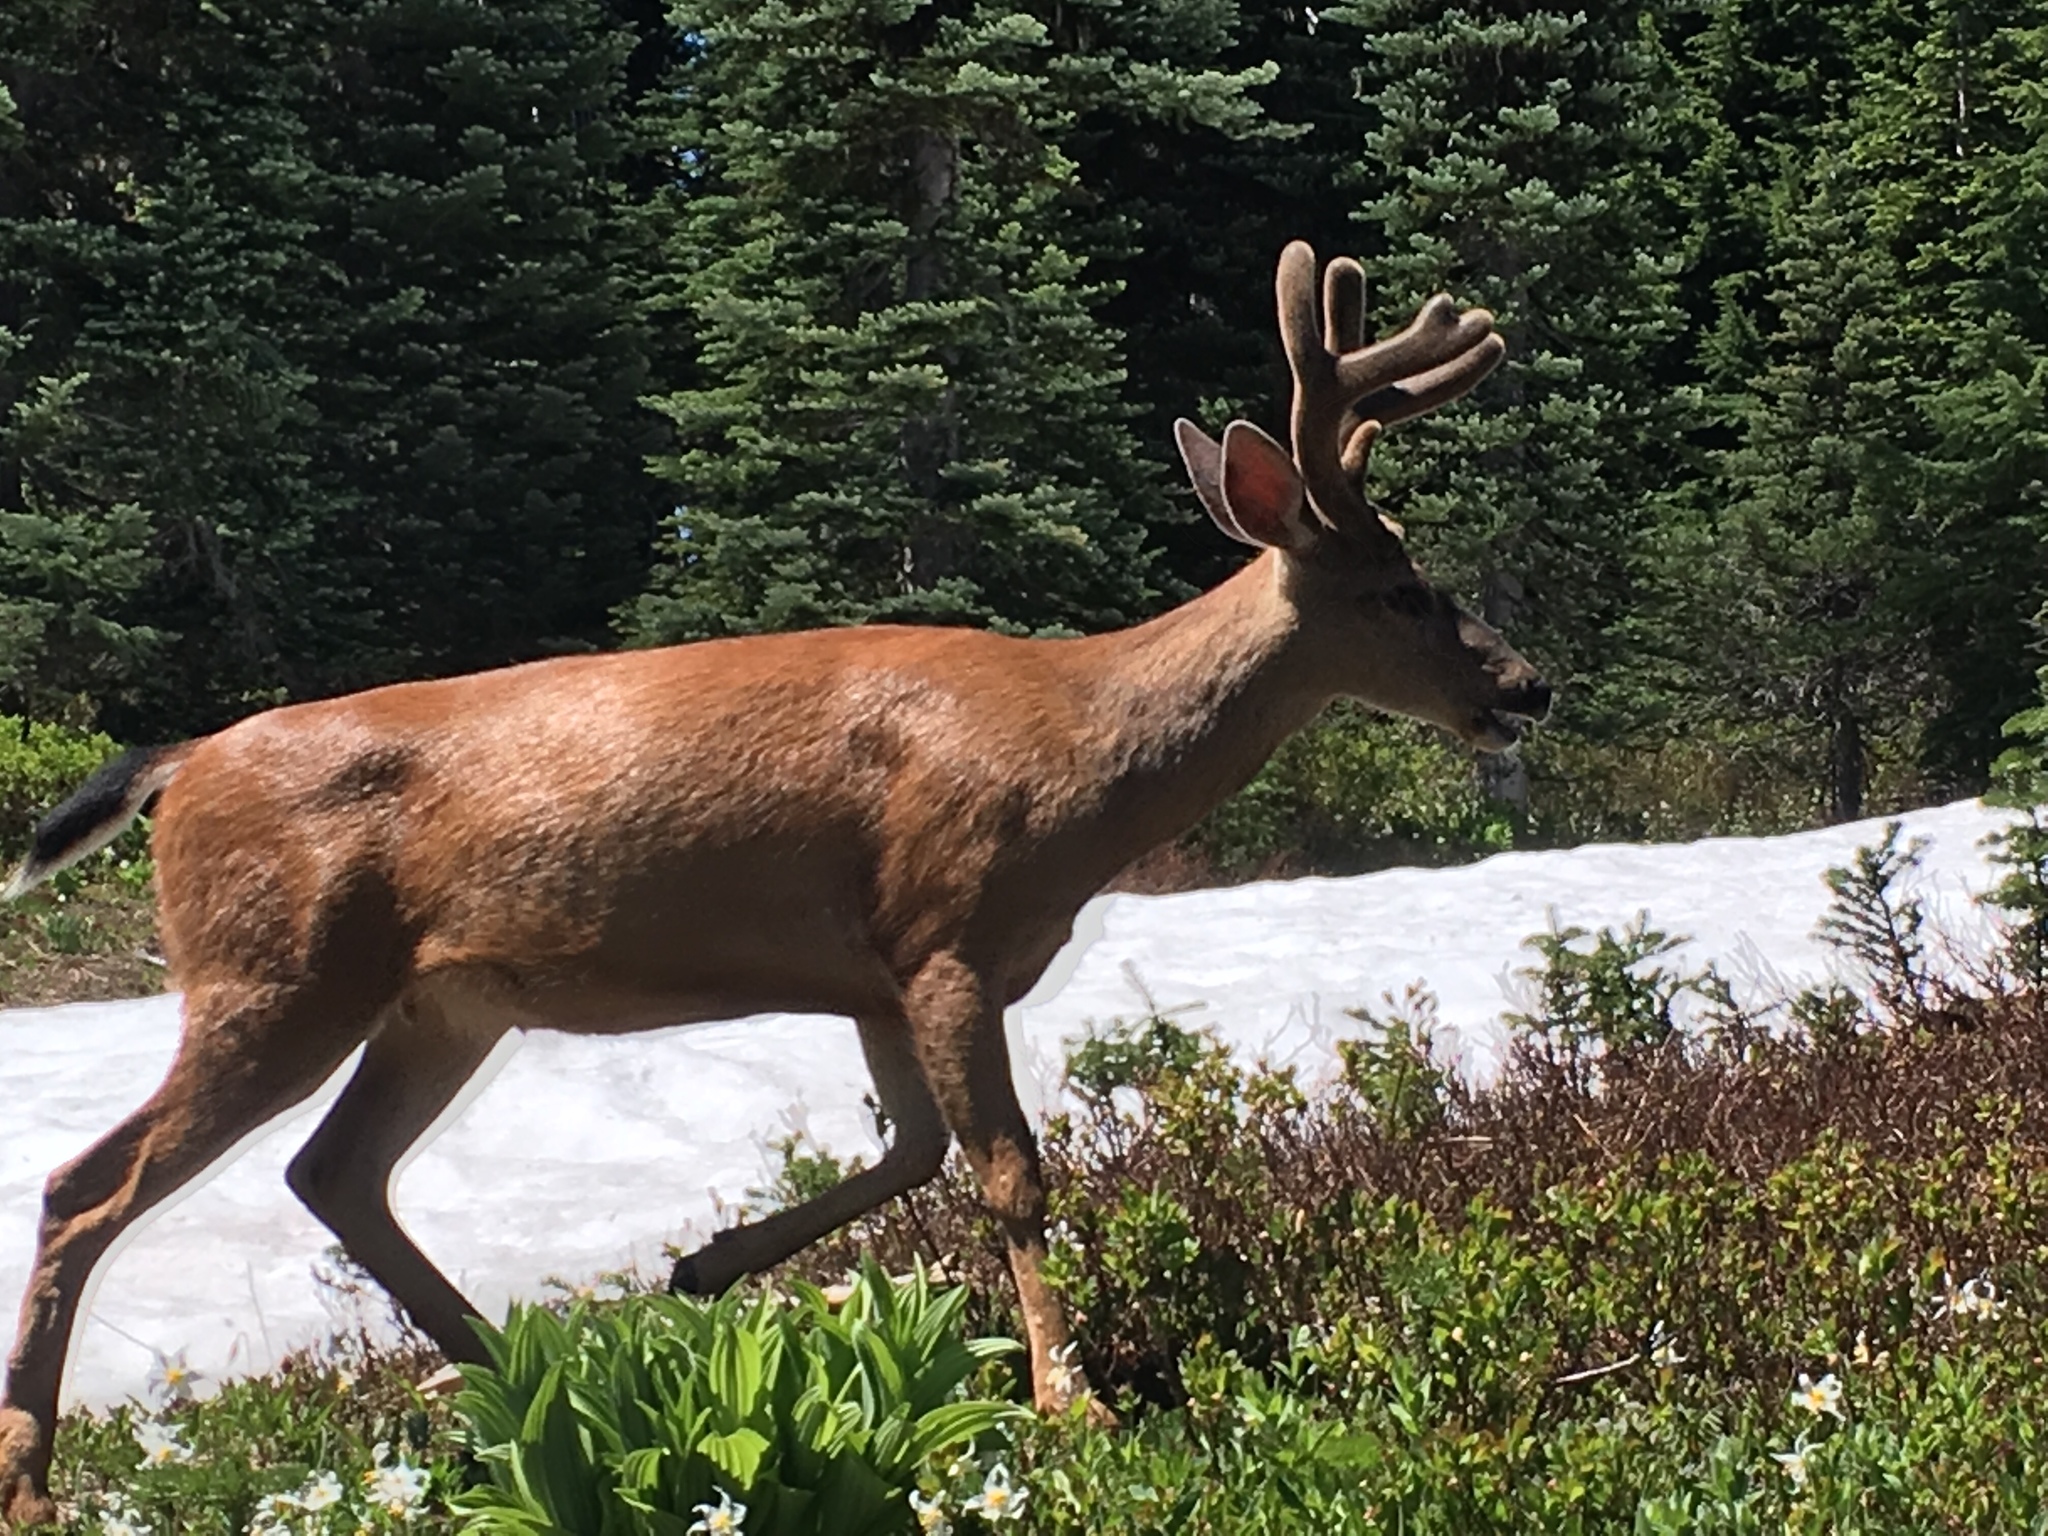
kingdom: Animalia
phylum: Chordata
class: Mammalia
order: Artiodactyla
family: Cervidae
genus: Odocoileus
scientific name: Odocoileus hemionus
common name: Mule deer
